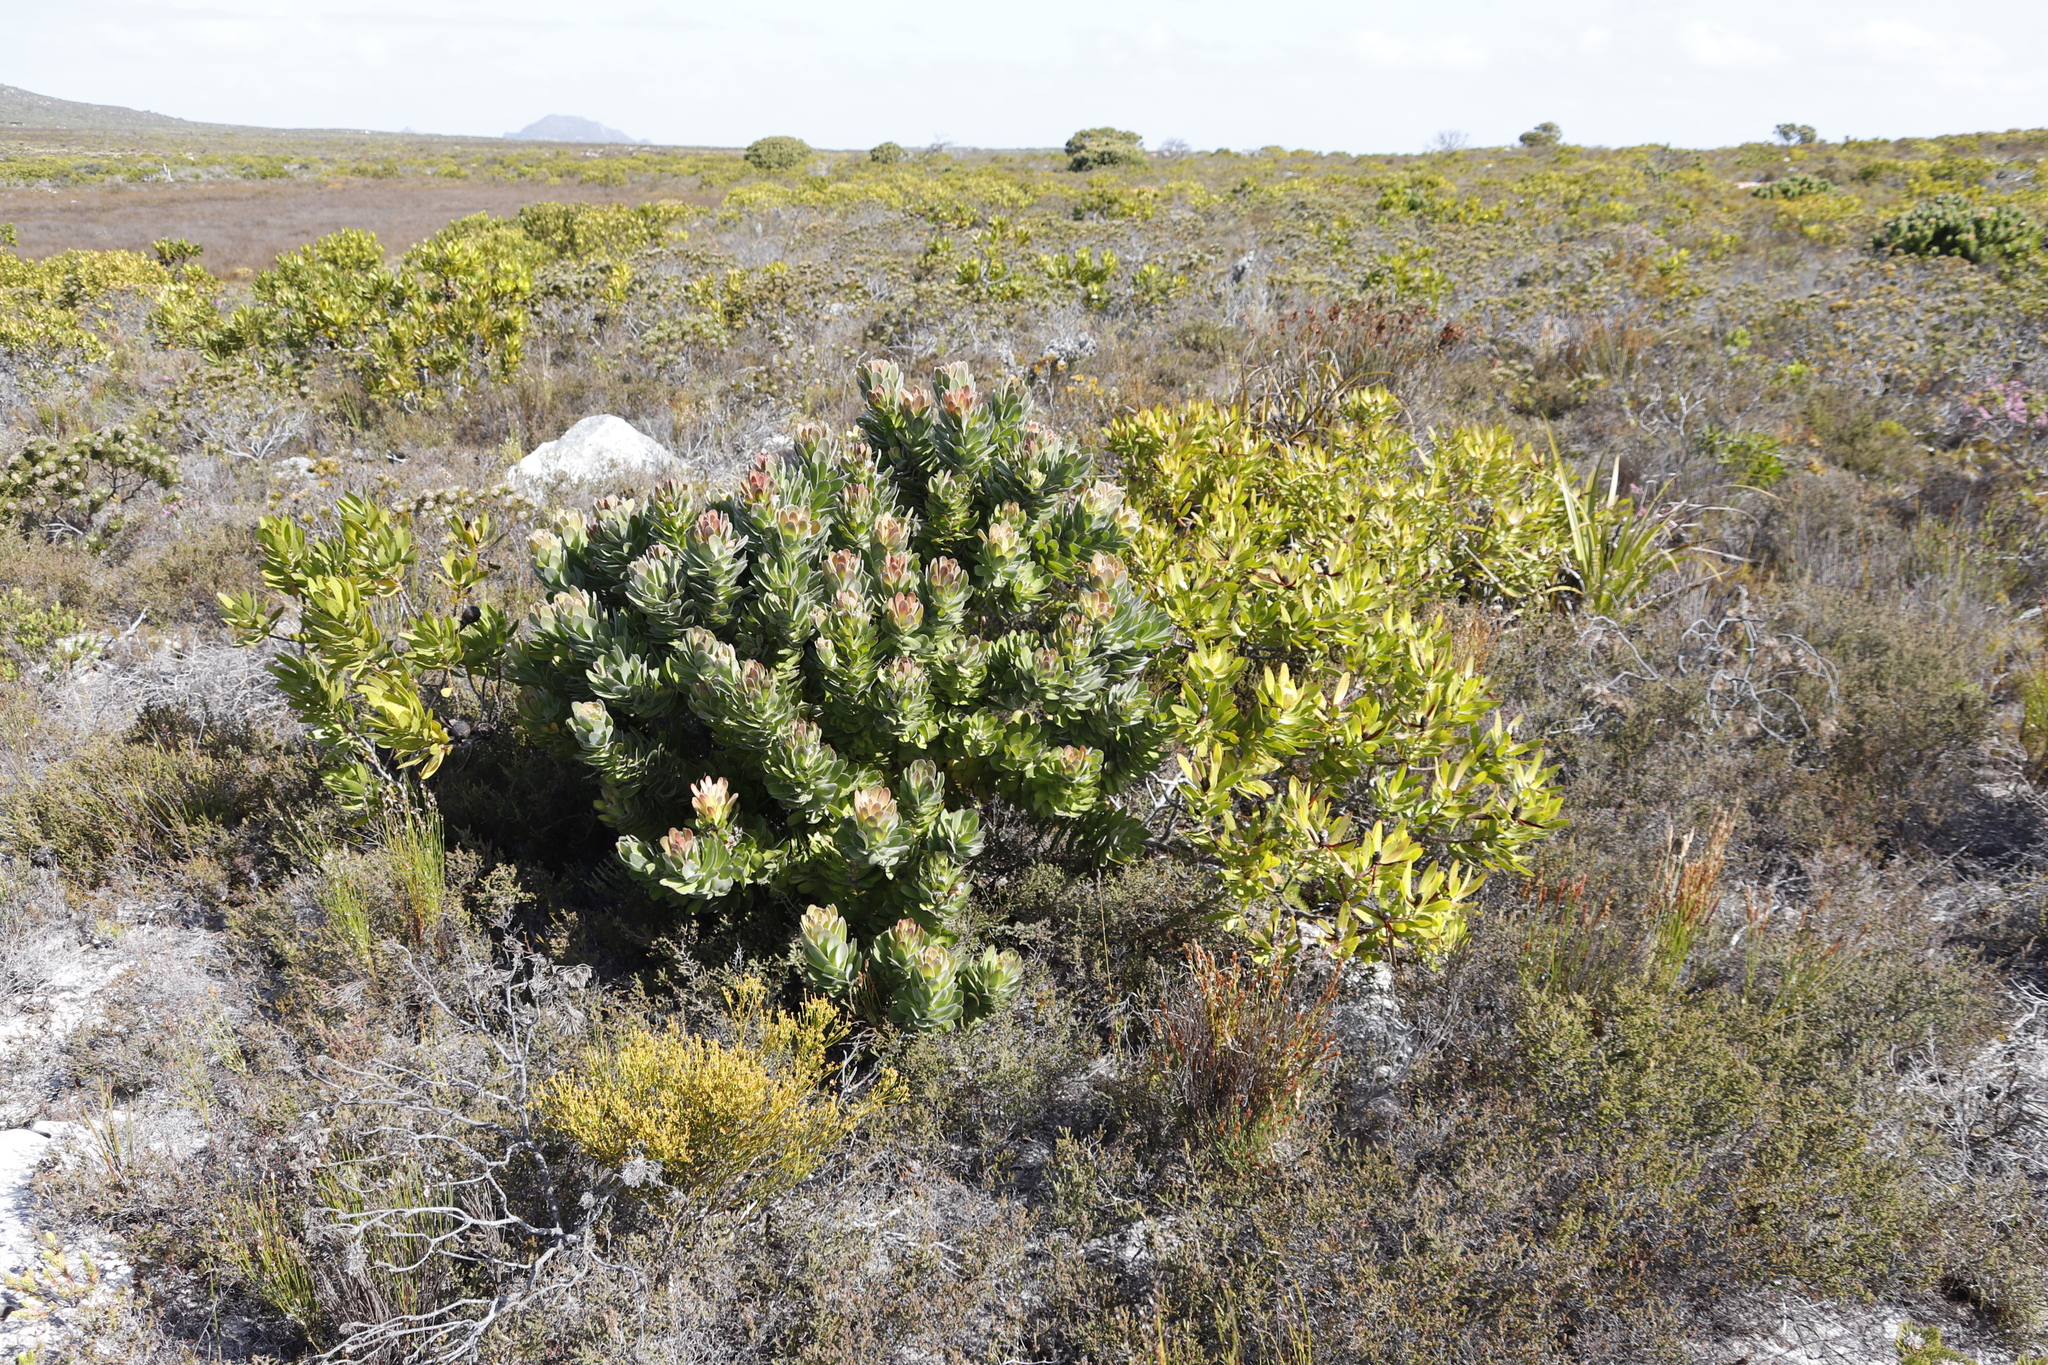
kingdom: Plantae
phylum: Tracheophyta
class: Magnoliopsida
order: Proteales
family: Proteaceae
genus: Leucadendron
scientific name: Leucadendron laureolum
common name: Golden sunshinebush
